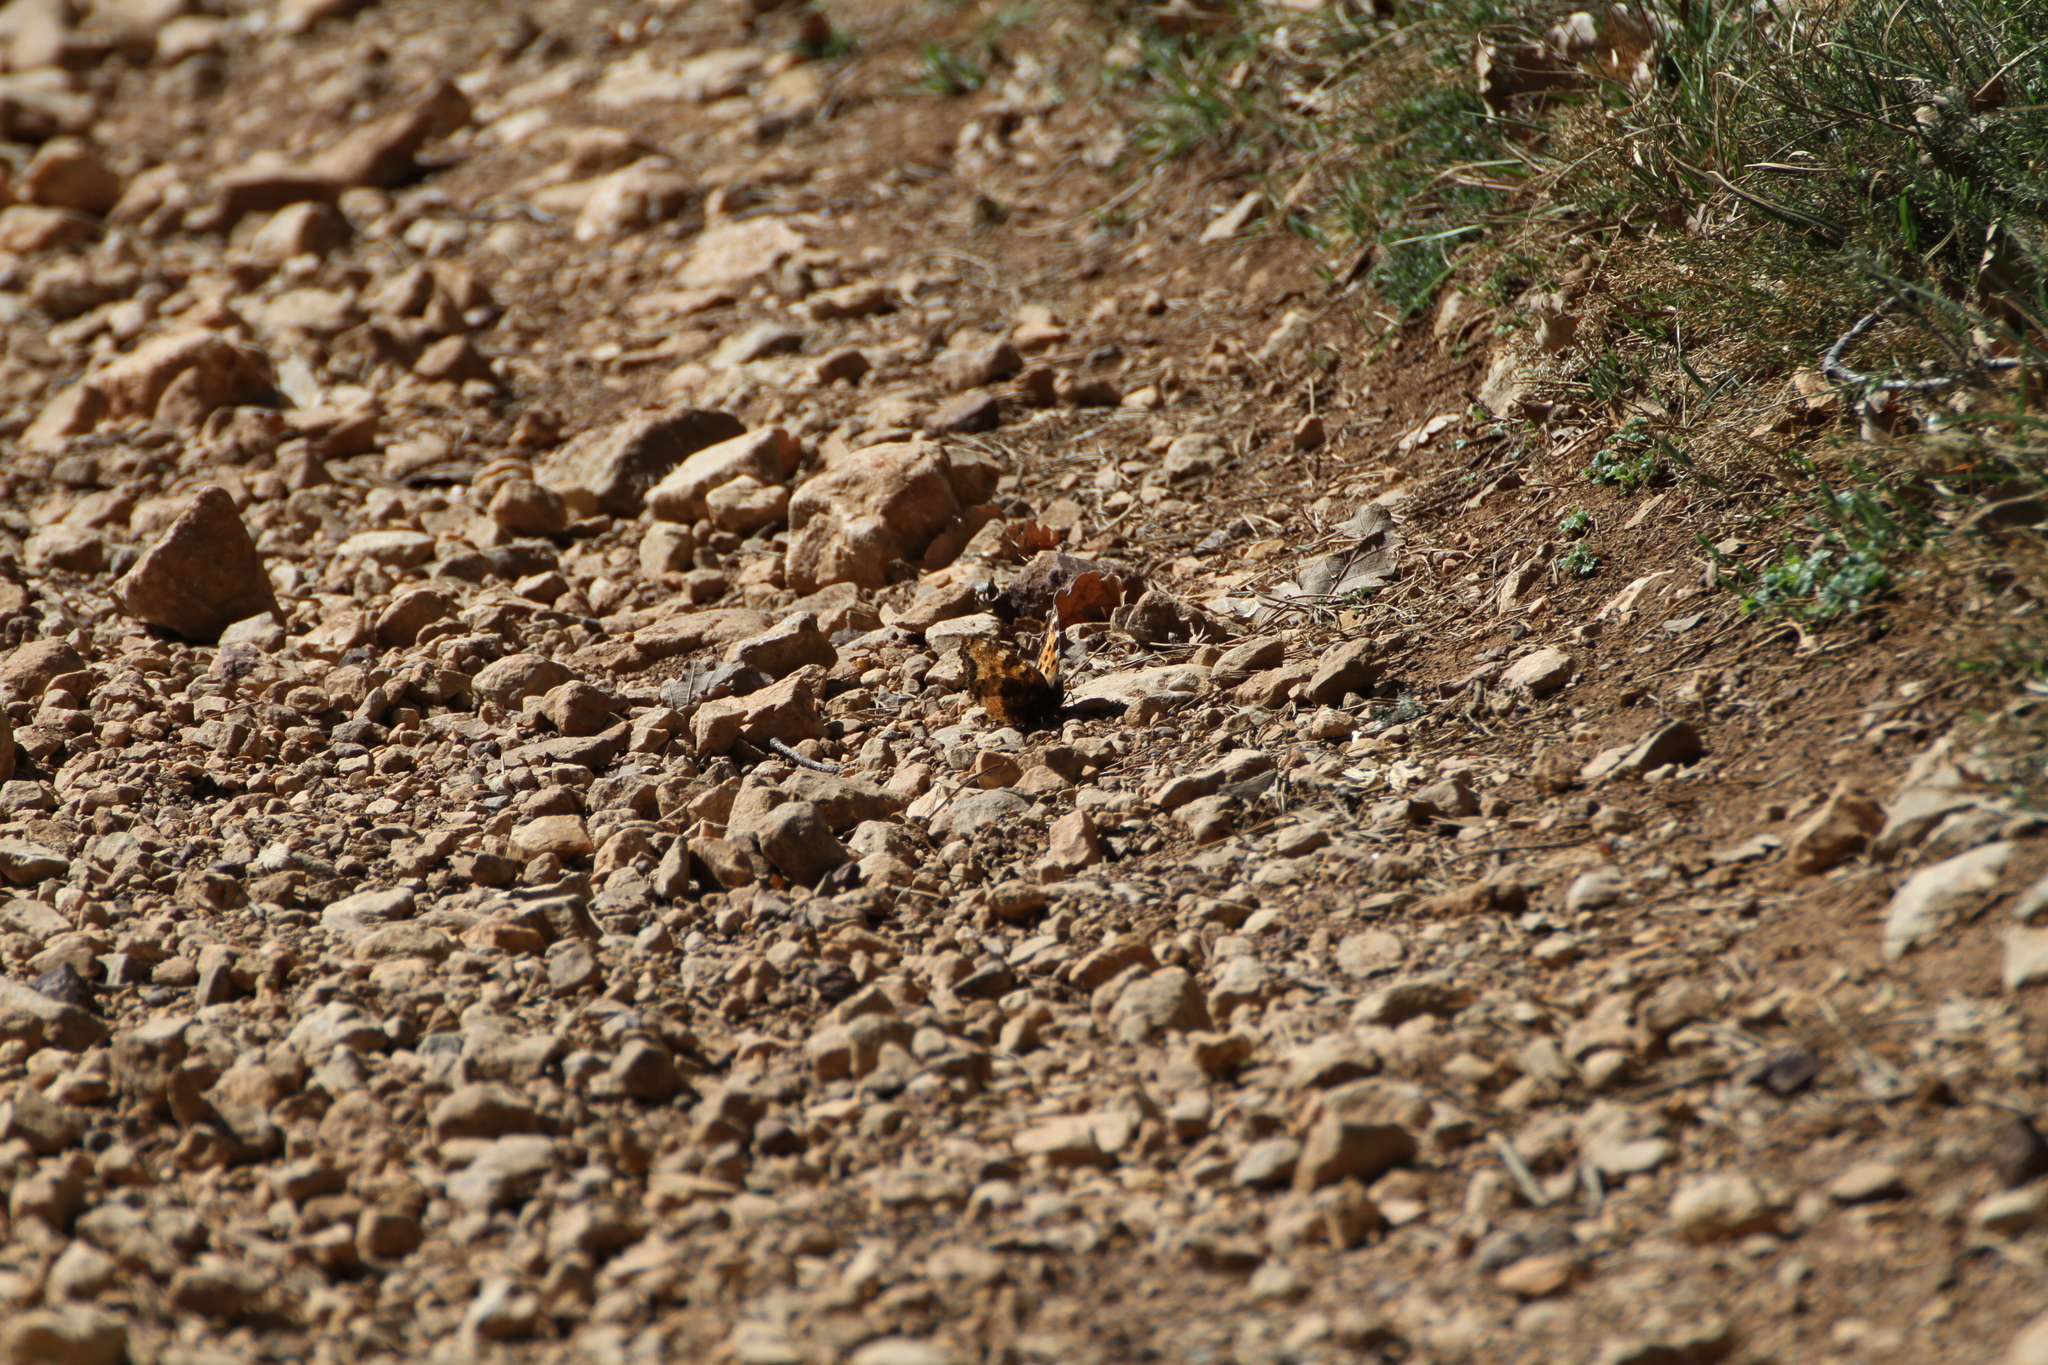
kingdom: Animalia
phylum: Arthropoda
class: Insecta
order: Lepidoptera
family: Nymphalidae
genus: Nymphalis
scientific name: Nymphalis polychloros
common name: Large tortoiseshell
